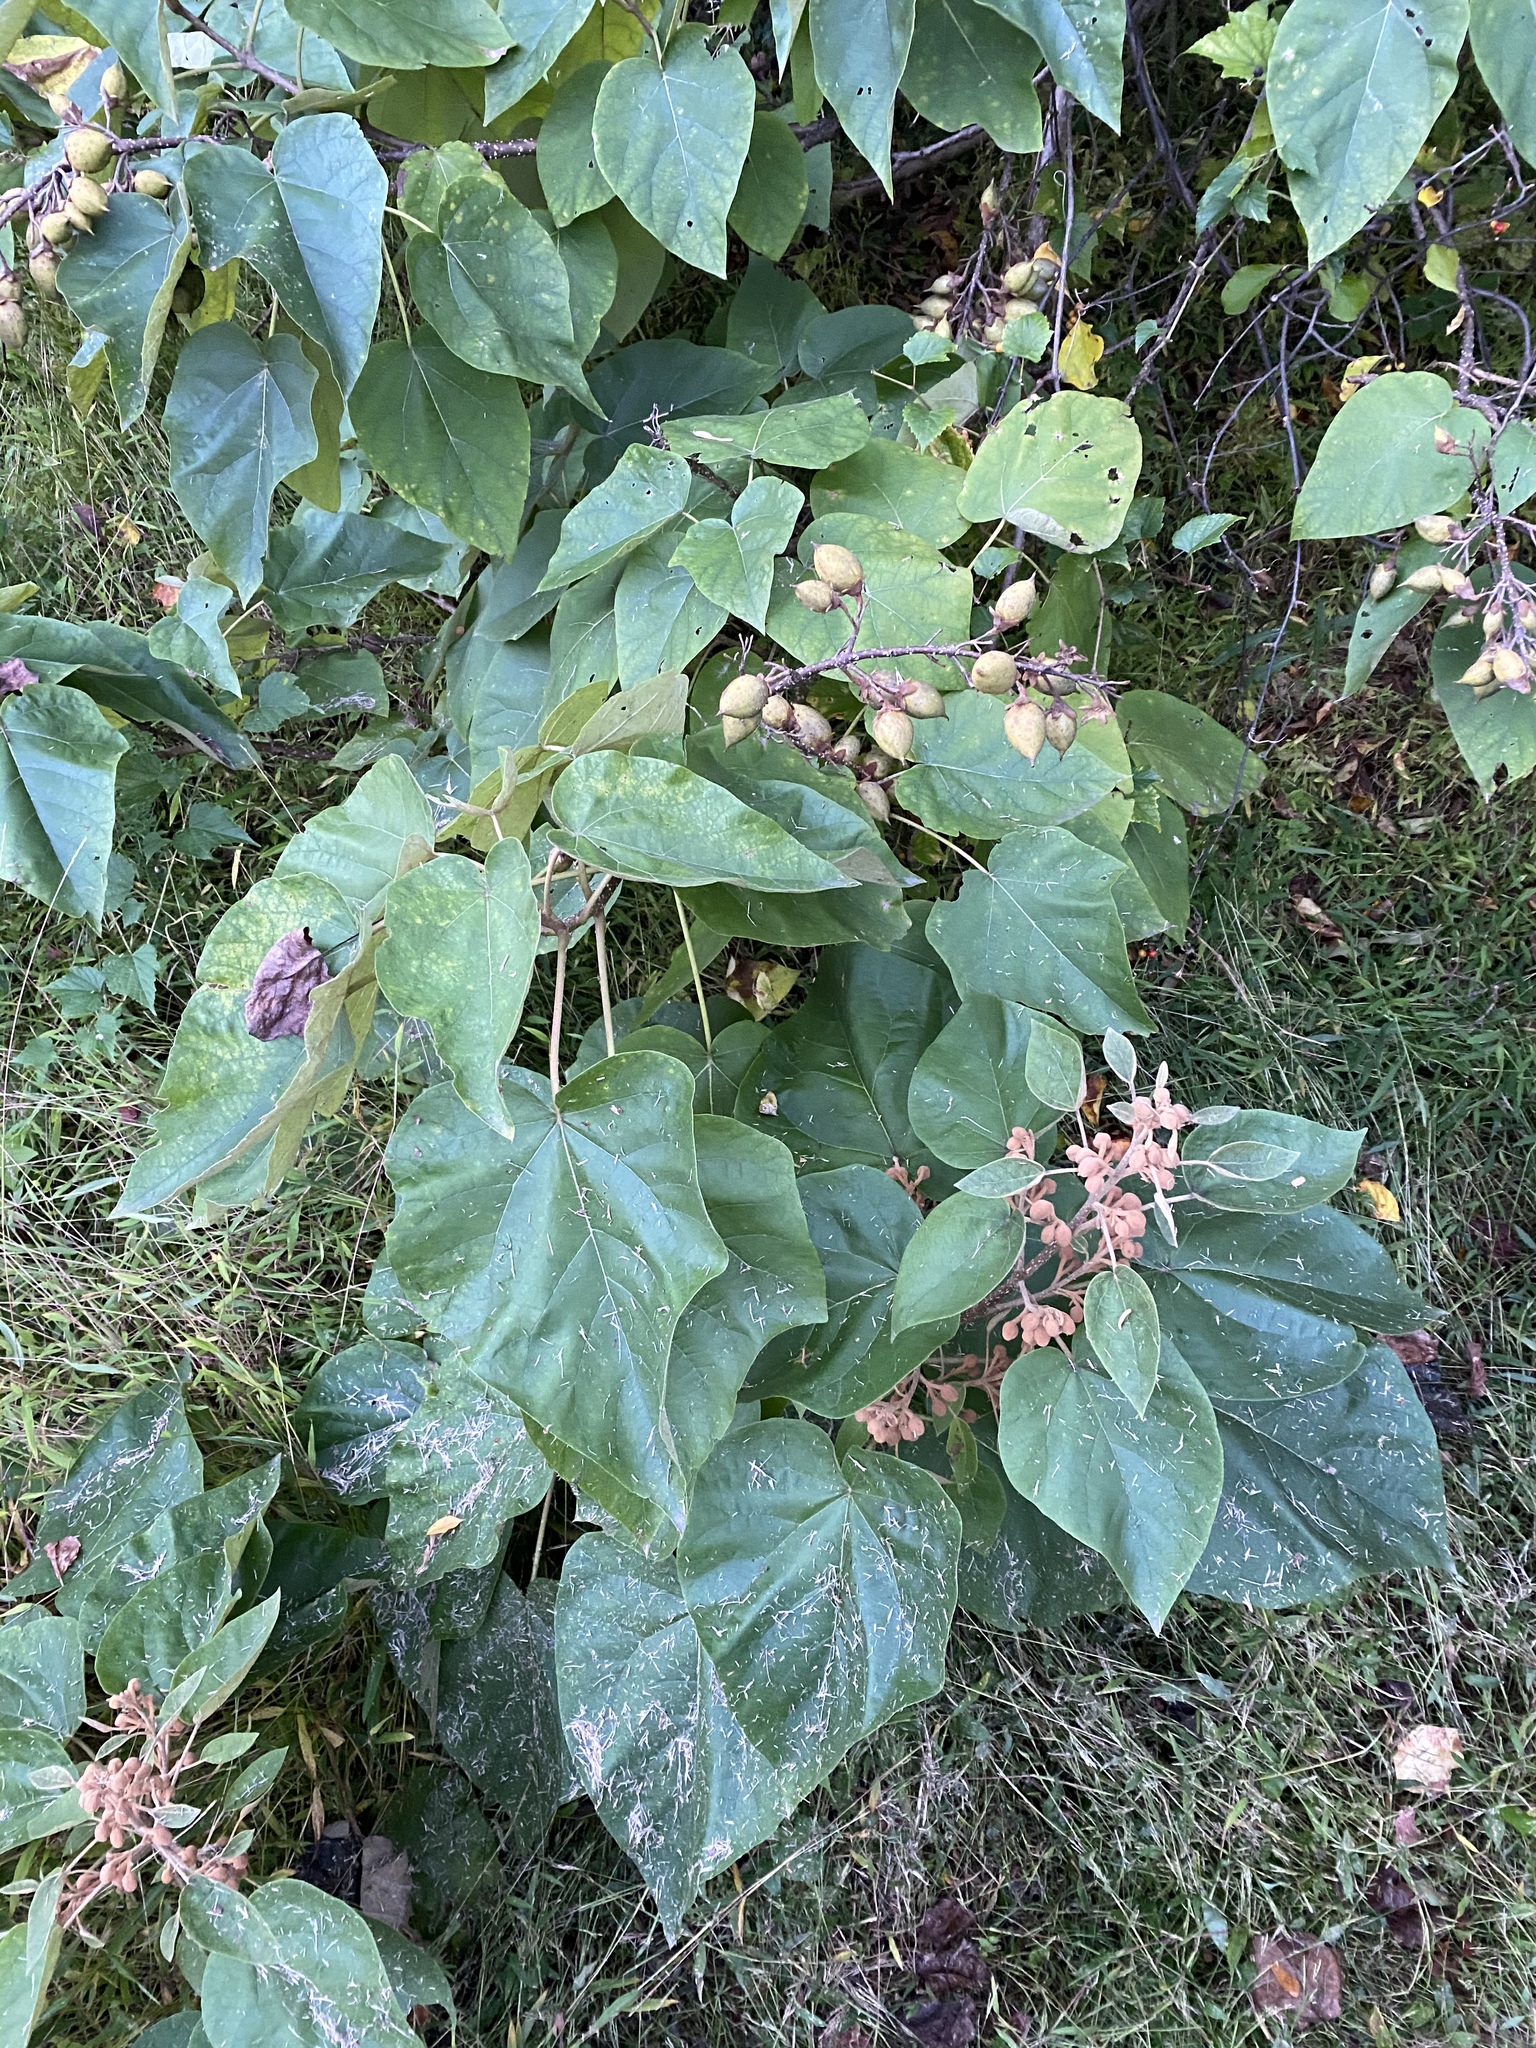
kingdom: Plantae
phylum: Tracheophyta
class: Magnoliopsida
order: Lamiales
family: Paulowniaceae
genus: Paulownia
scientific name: Paulownia tomentosa
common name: Foxglove-tree
